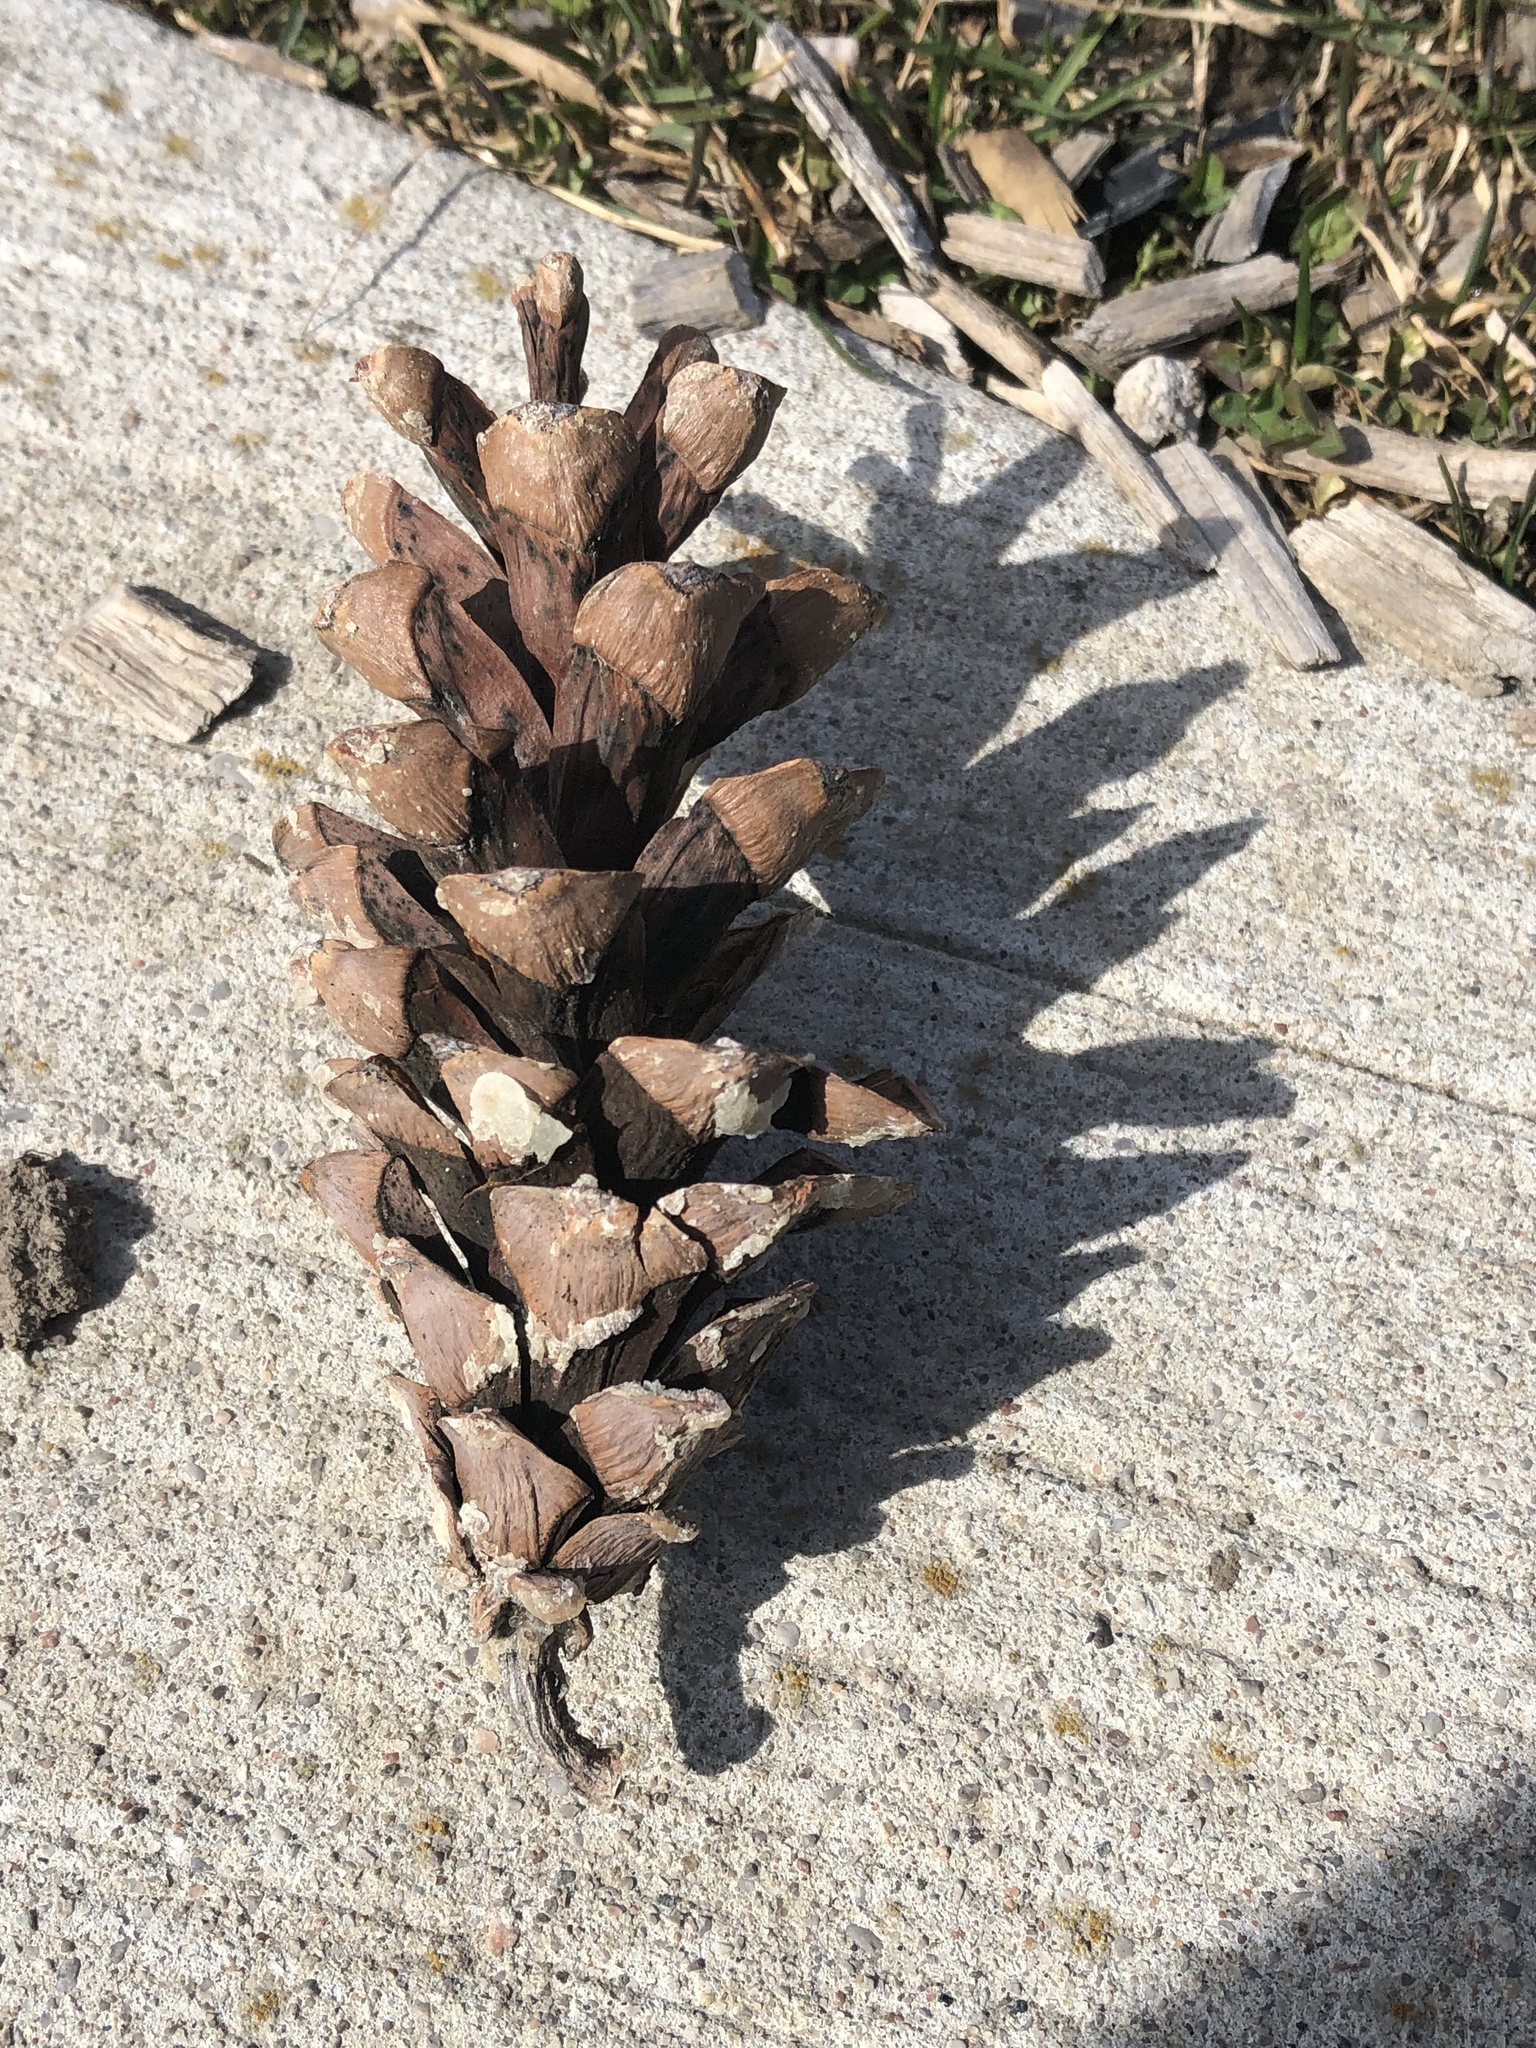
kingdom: Plantae
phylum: Tracheophyta
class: Pinopsida
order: Pinales
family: Pinaceae
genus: Pinus
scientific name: Pinus strobus
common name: Weymouth pine
